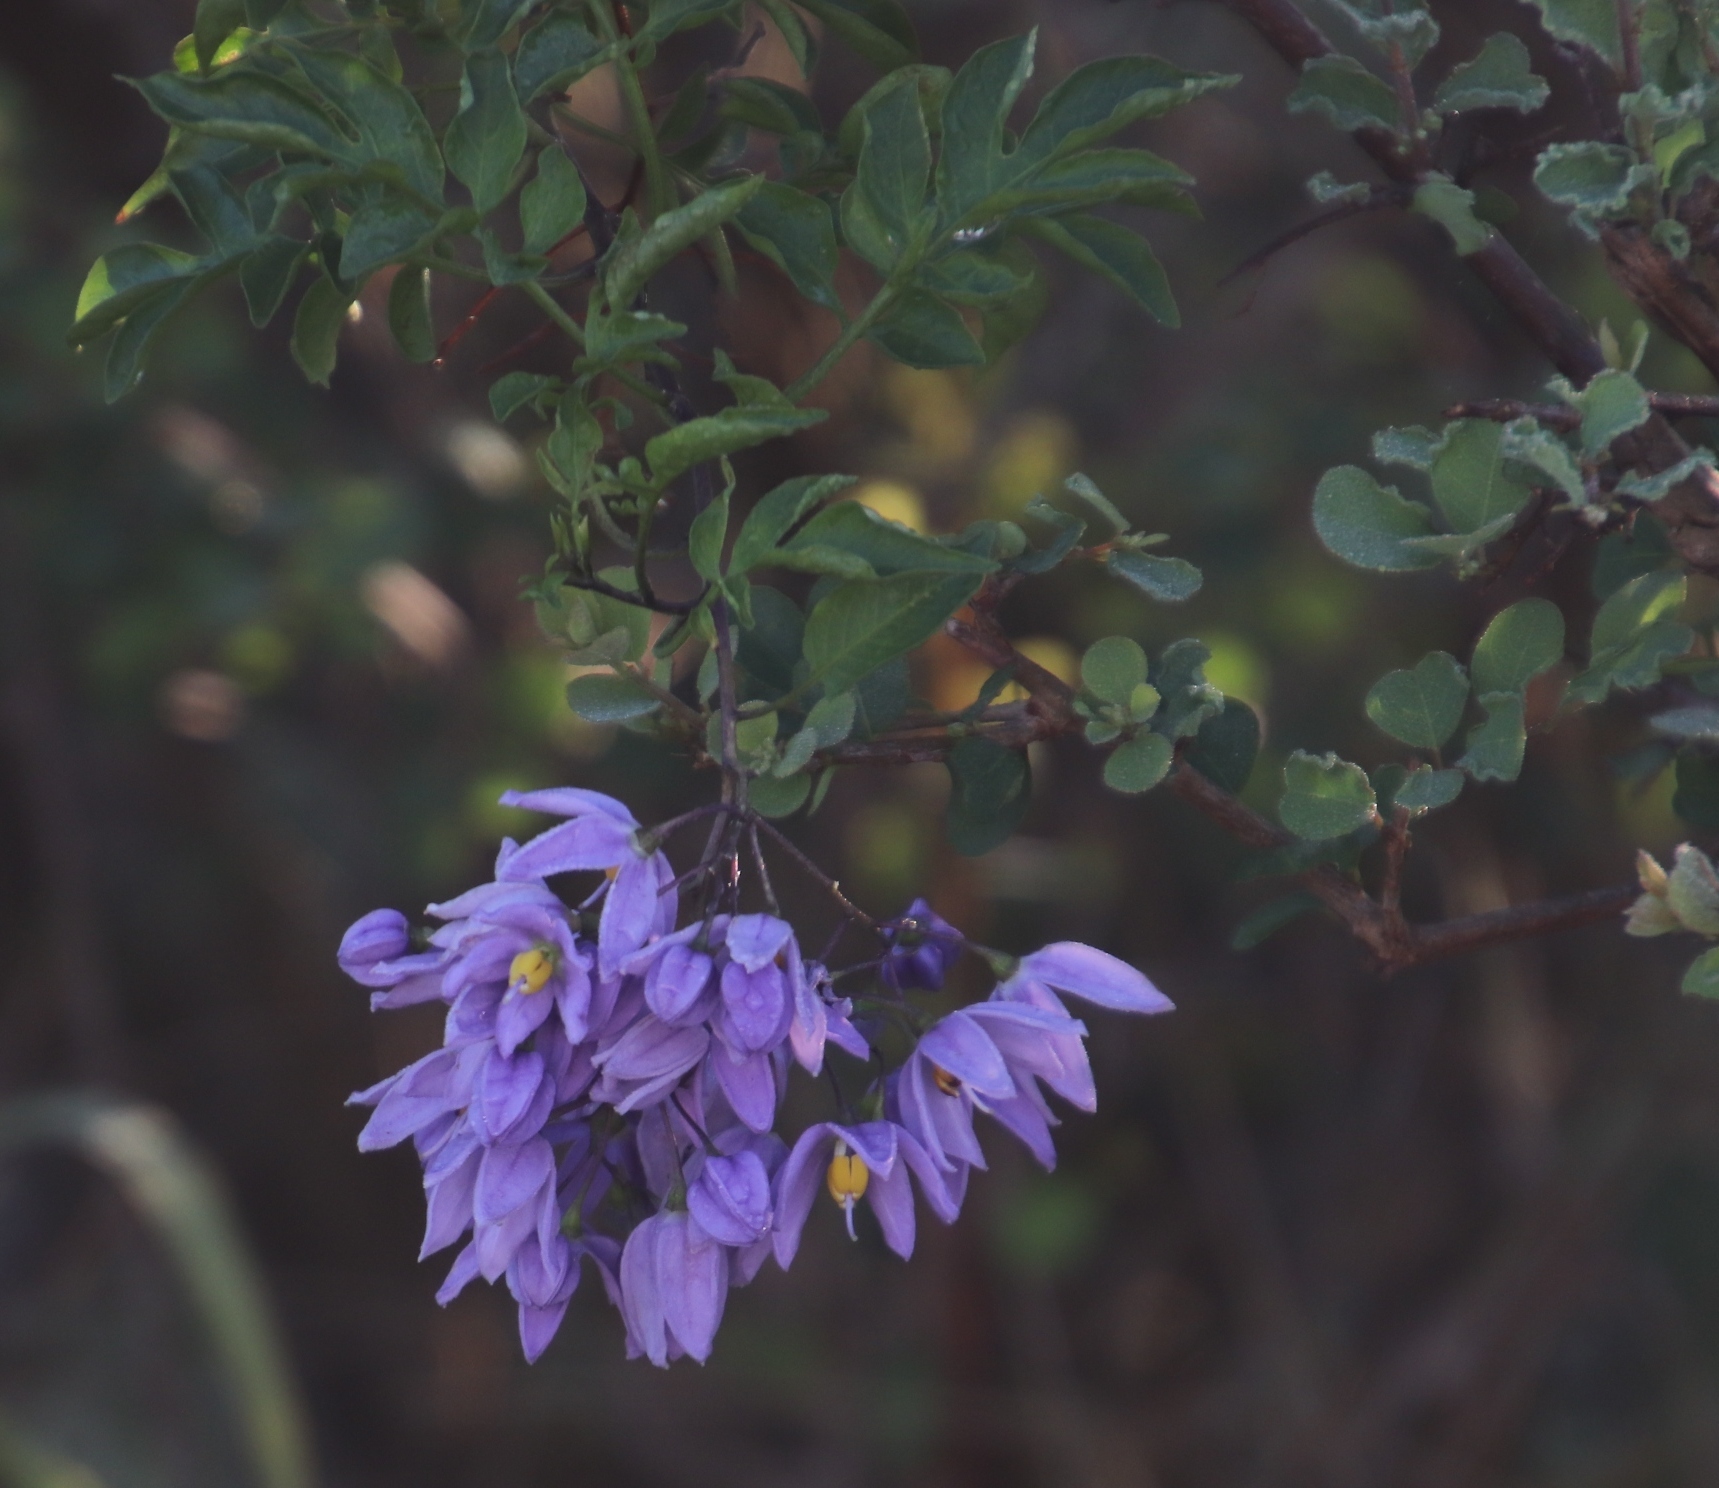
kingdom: Plantae
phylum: Tracheophyta
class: Magnoliopsida
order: Solanales
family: Solanaceae
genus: Solanum
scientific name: Solanum seaforthianum
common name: Brazilian nightshade
